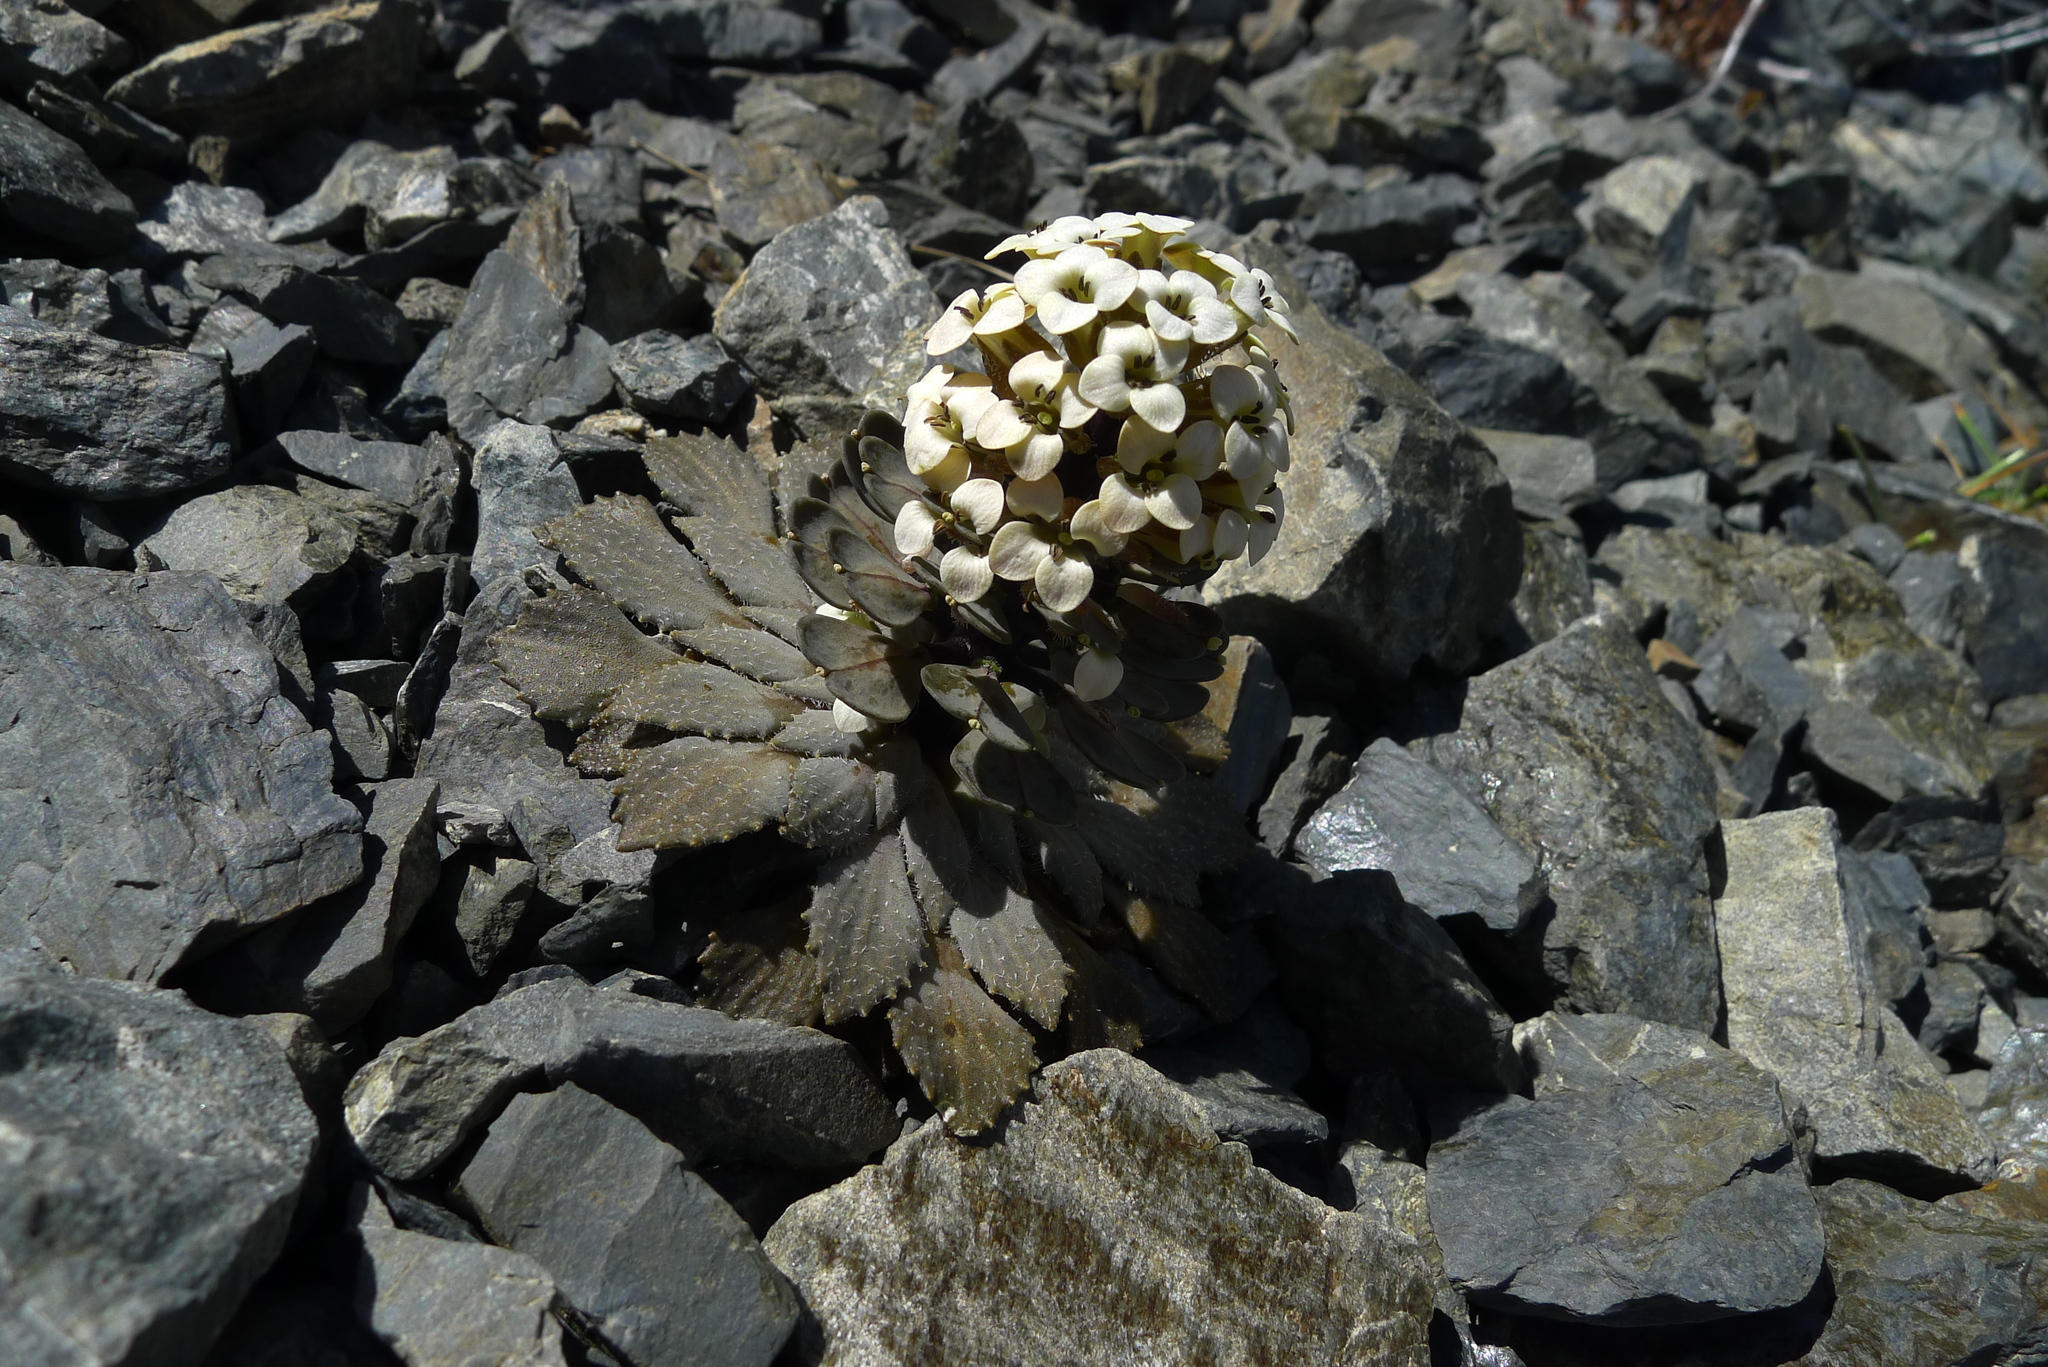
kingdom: Plantae
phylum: Tracheophyta
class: Magnoliopsida
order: Brassicales
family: Brassicaceae
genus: Notothlaspi
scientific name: Notothlaspi rosulatum
